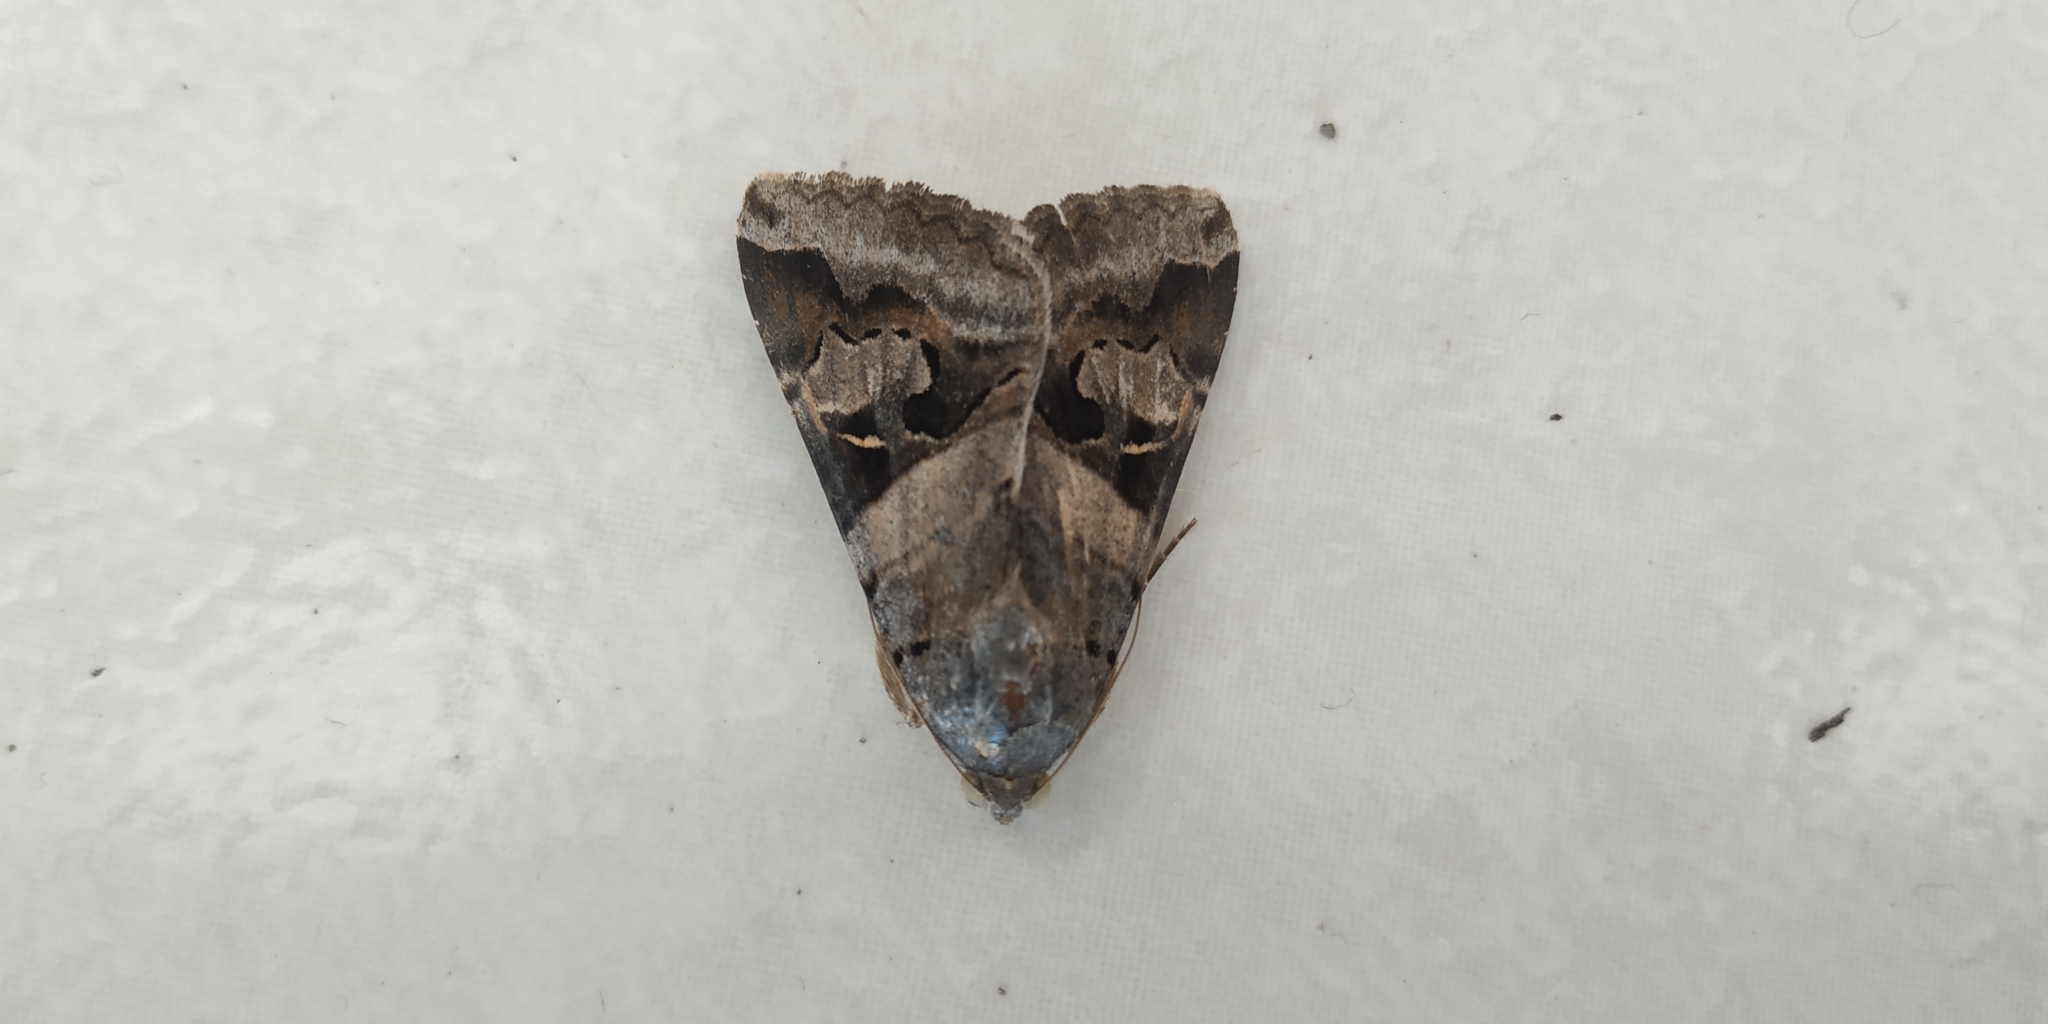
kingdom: Animalia
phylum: Arthropoda
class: Insecta
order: Lepidoptera
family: Erebidae
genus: Melipotis
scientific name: Melipotis indomita
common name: Moth
